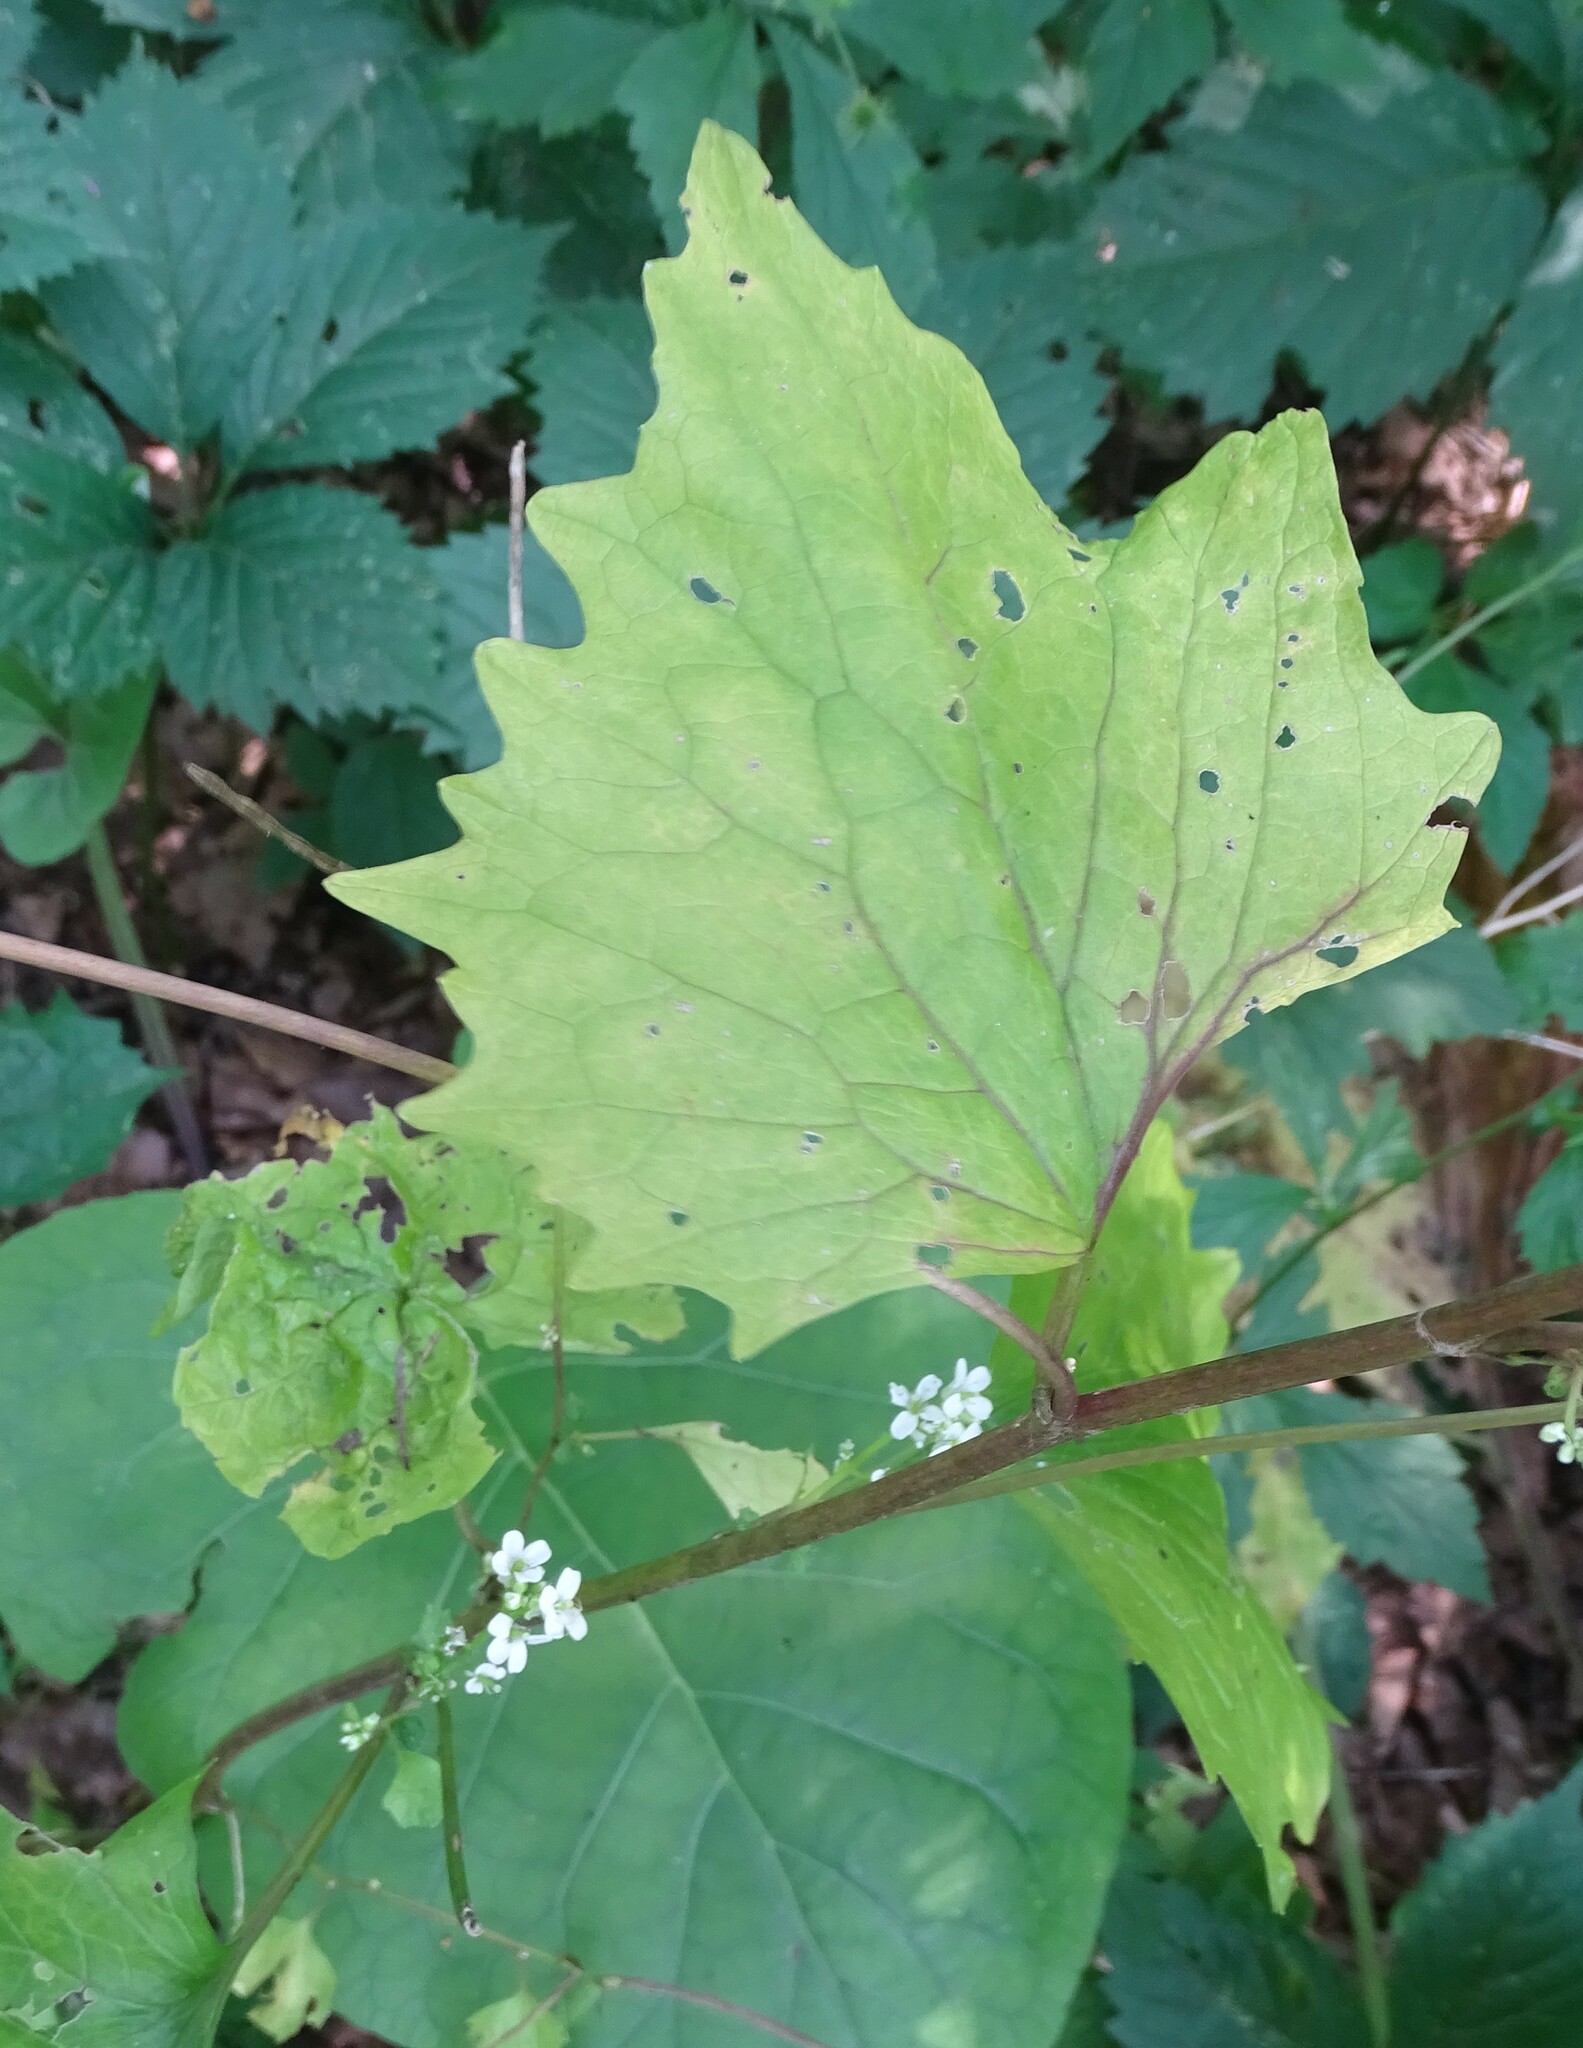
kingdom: Plantae
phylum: Tracheophyta
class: Magnoliopsida
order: Brassicales
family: Brassicaceae
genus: Alliaria
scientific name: Alliaria petiolata
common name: Garlic mustard
